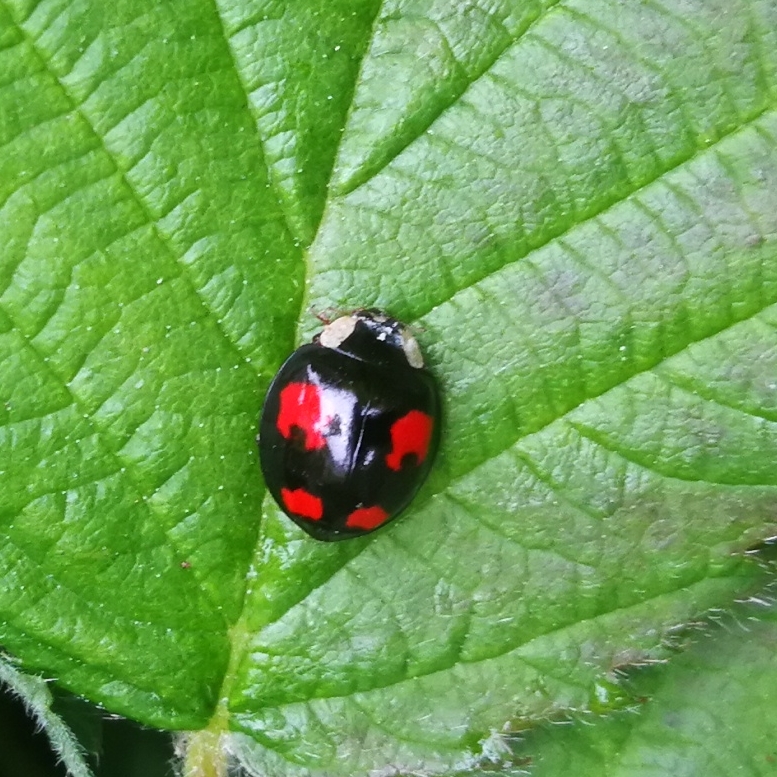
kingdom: Animalia
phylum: Arthropoda
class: Insecta
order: Coleoptera
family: Coccinellidae
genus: Harmonia
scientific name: Harmonia axyridis
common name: Harlequin ladybird
